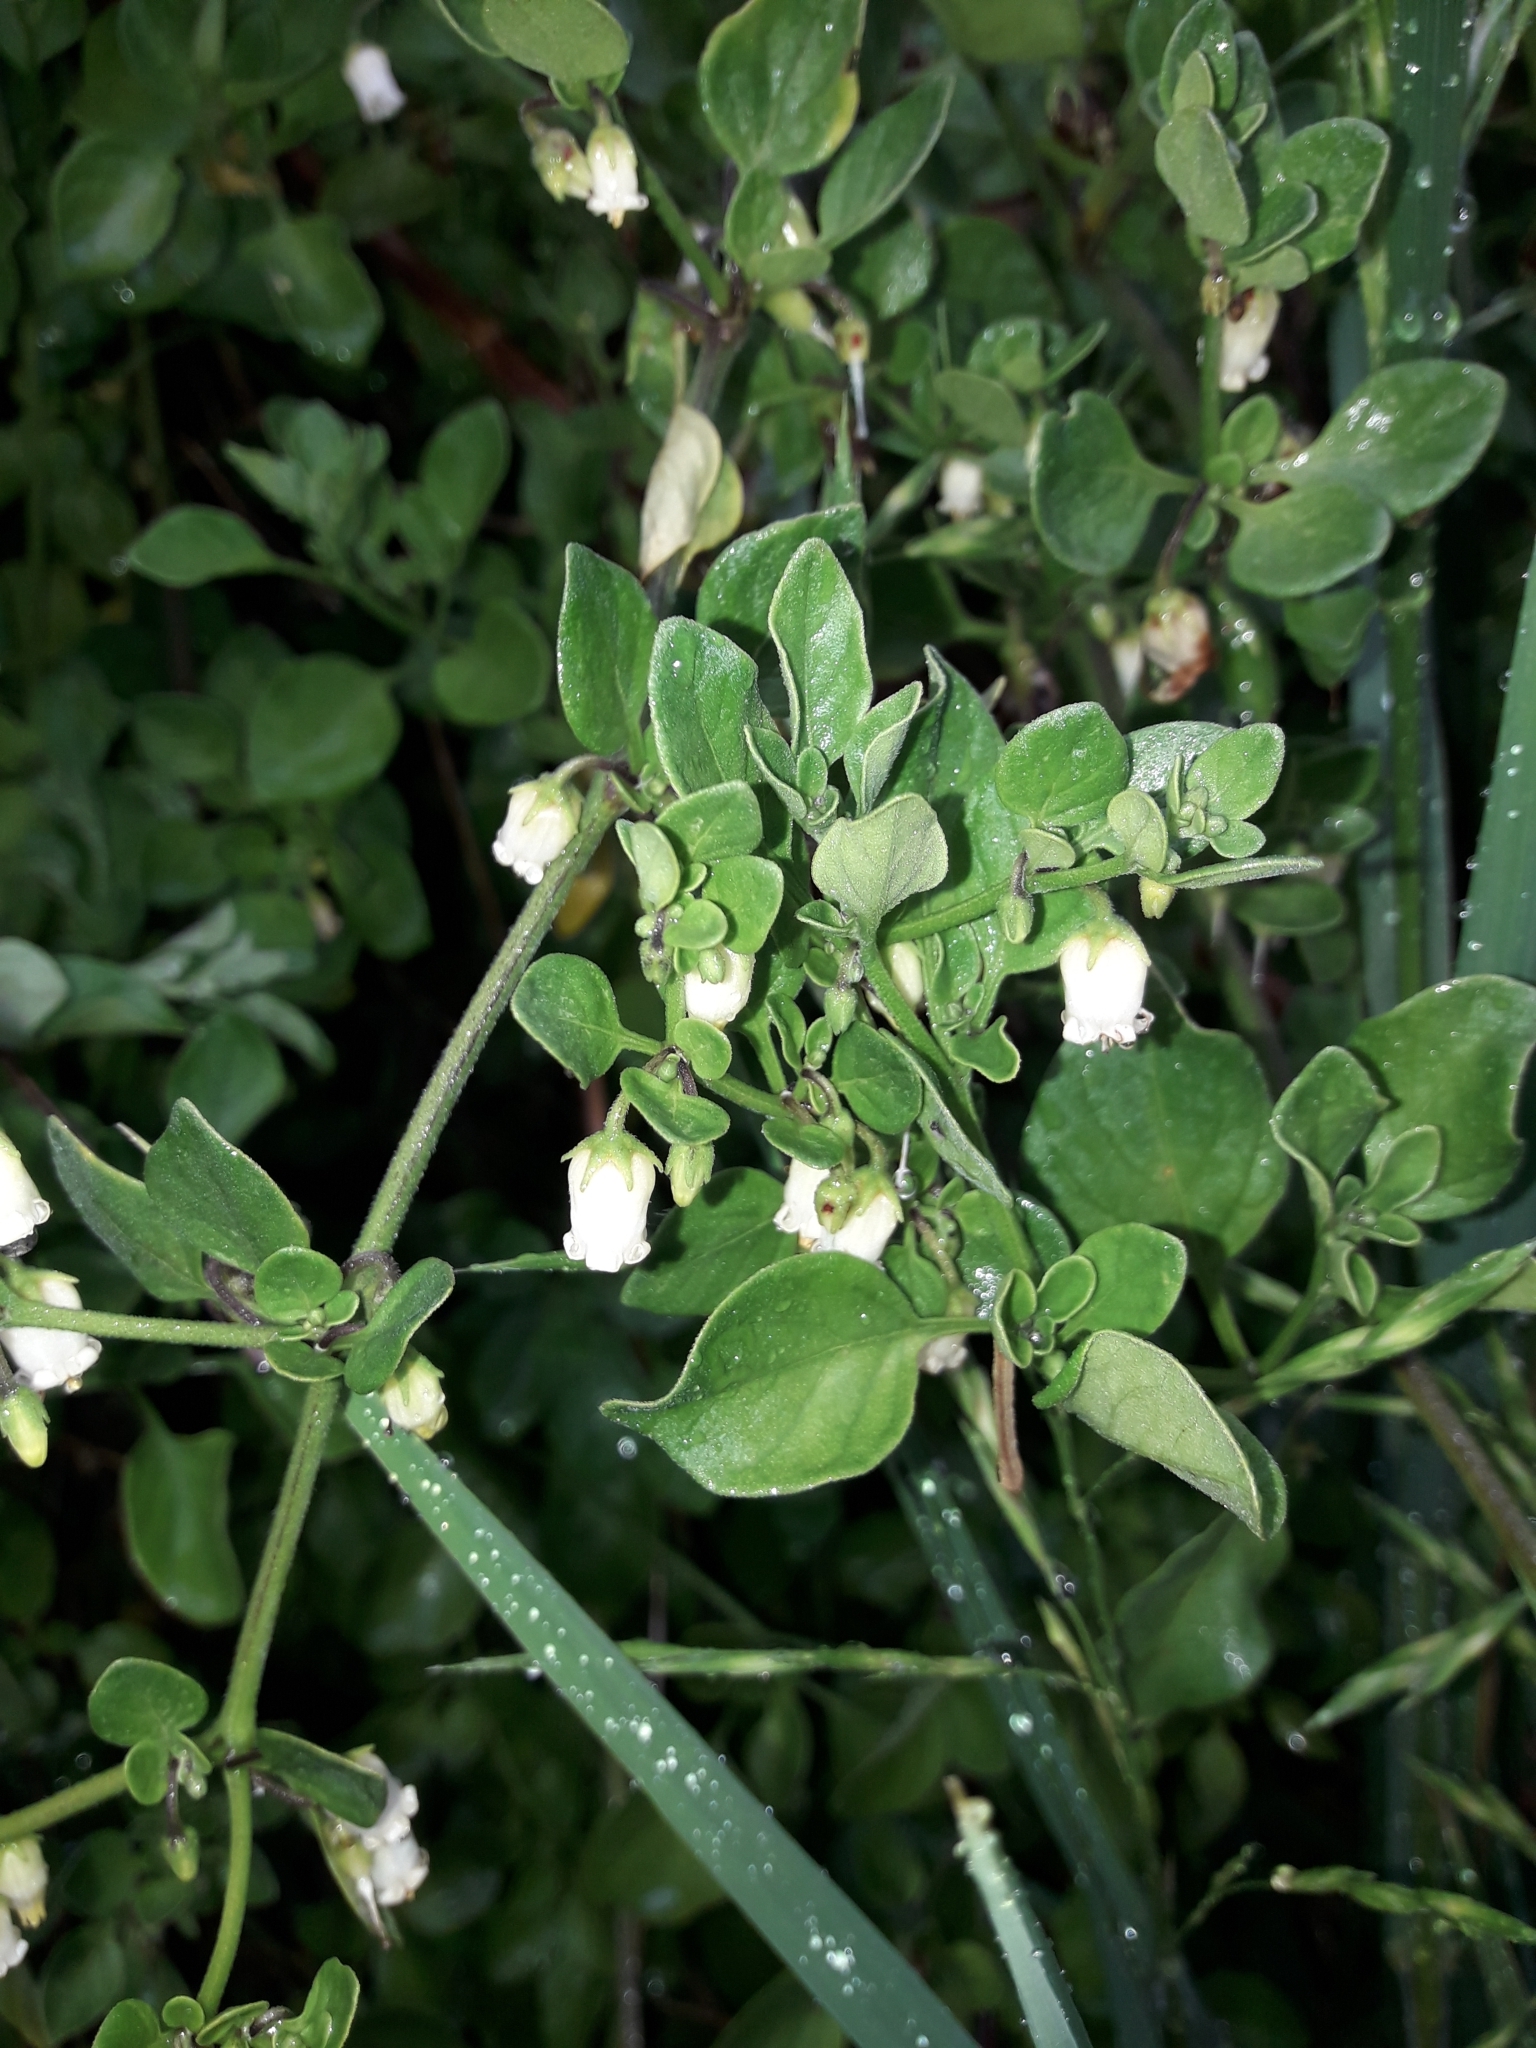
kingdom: Plantae
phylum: Tracheophyta
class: Magnoliopsida
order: Solanales
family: Solanaceae
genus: Salpichroa
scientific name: Salpichroa origanifolia
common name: Lily-of-the-valley-vine
